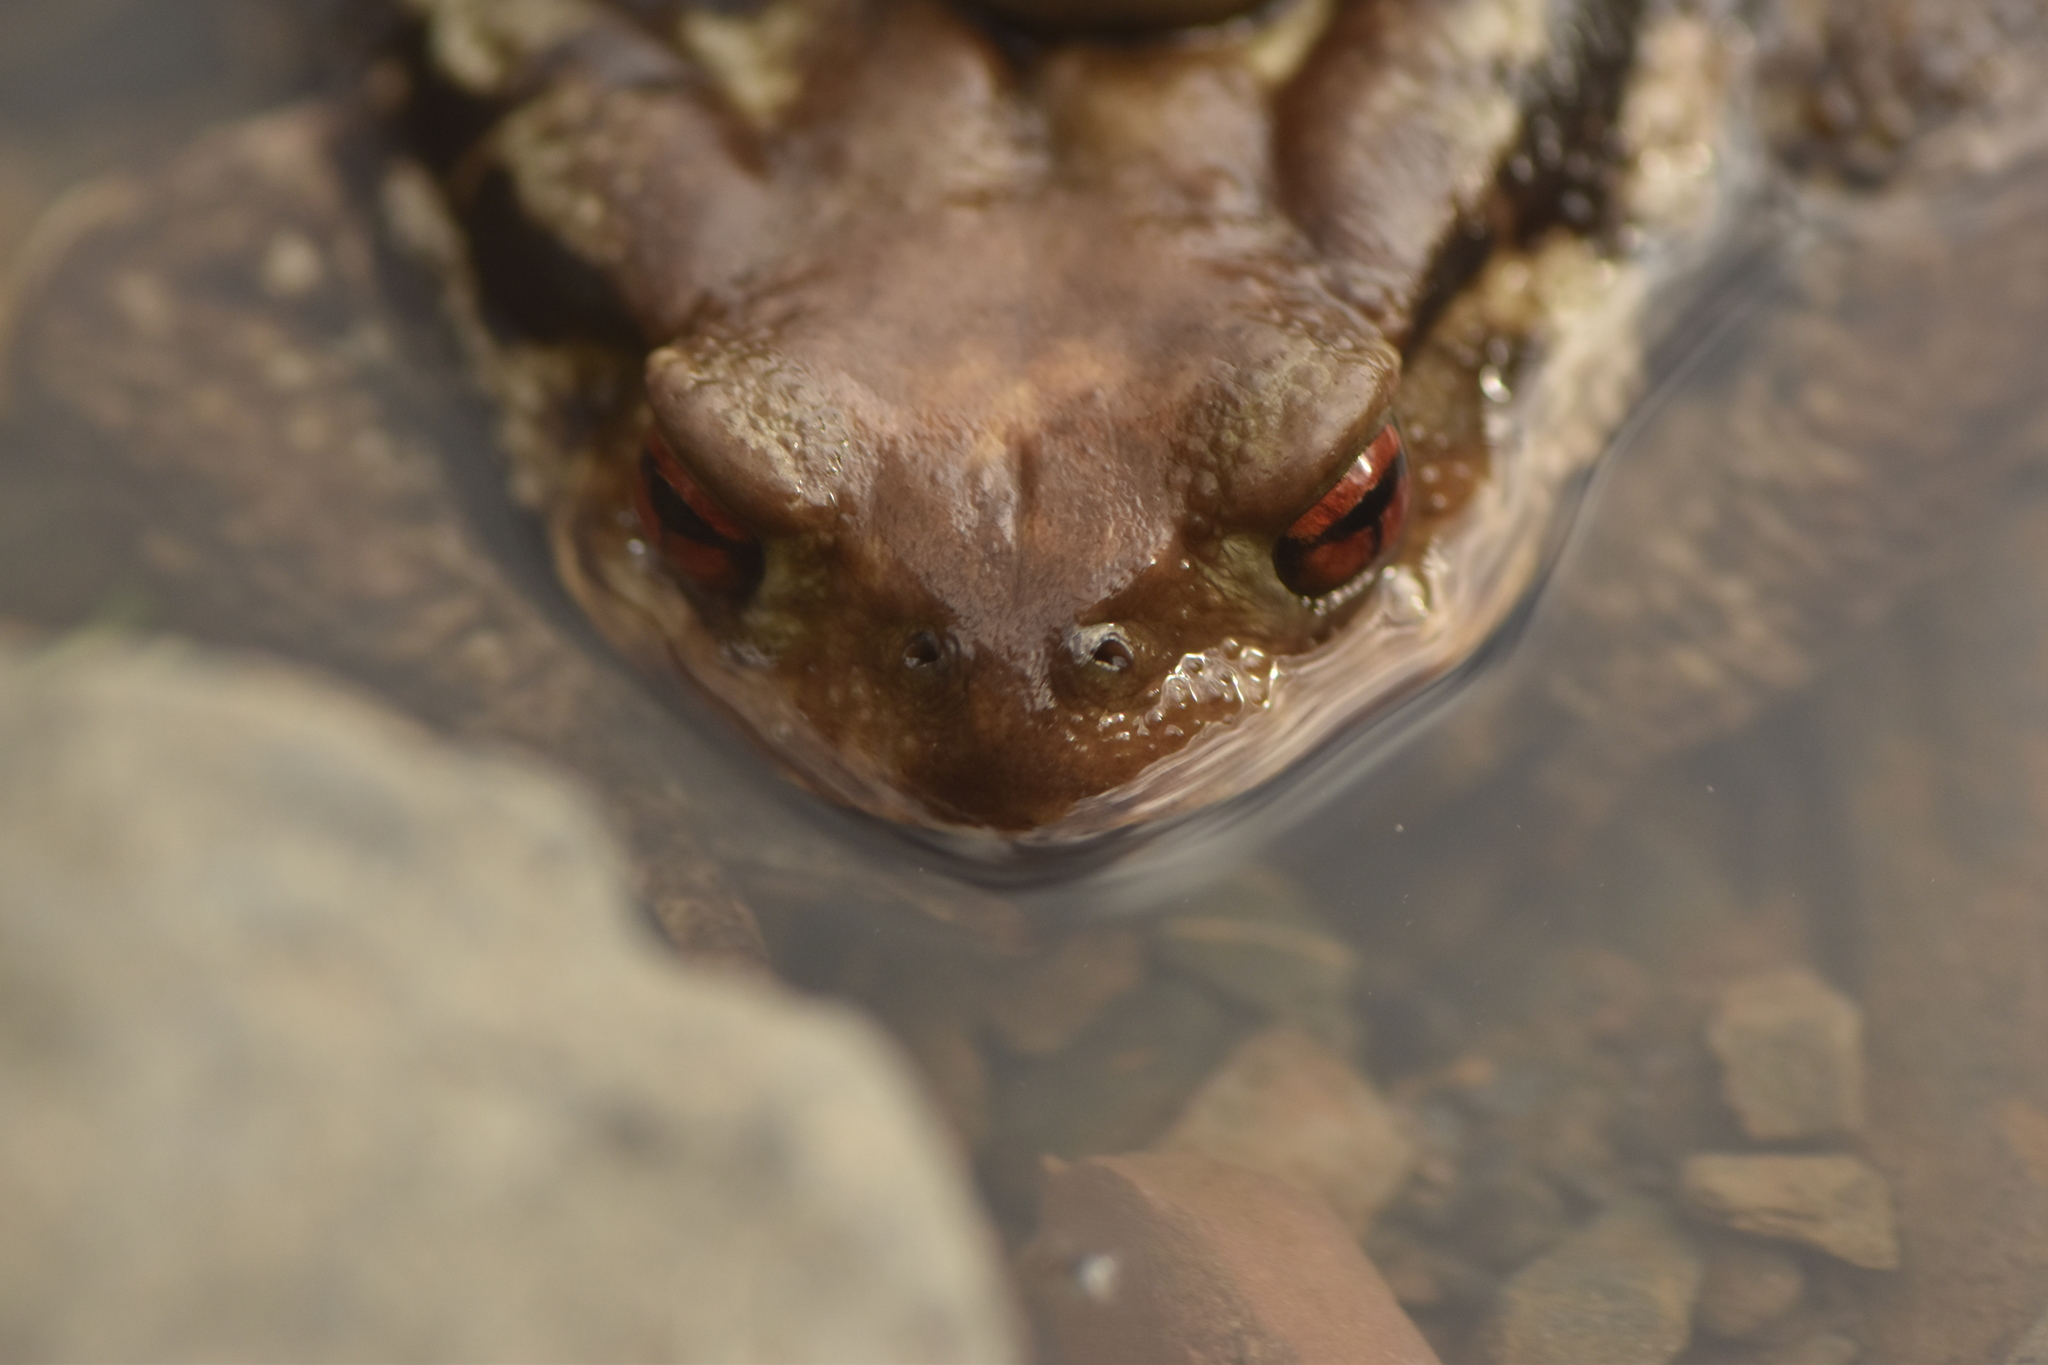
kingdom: Animalia
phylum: Chordata
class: Amphibia
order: Anura
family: Bufonidae
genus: Bufo
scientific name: Bufo spinosus
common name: Western common toad
